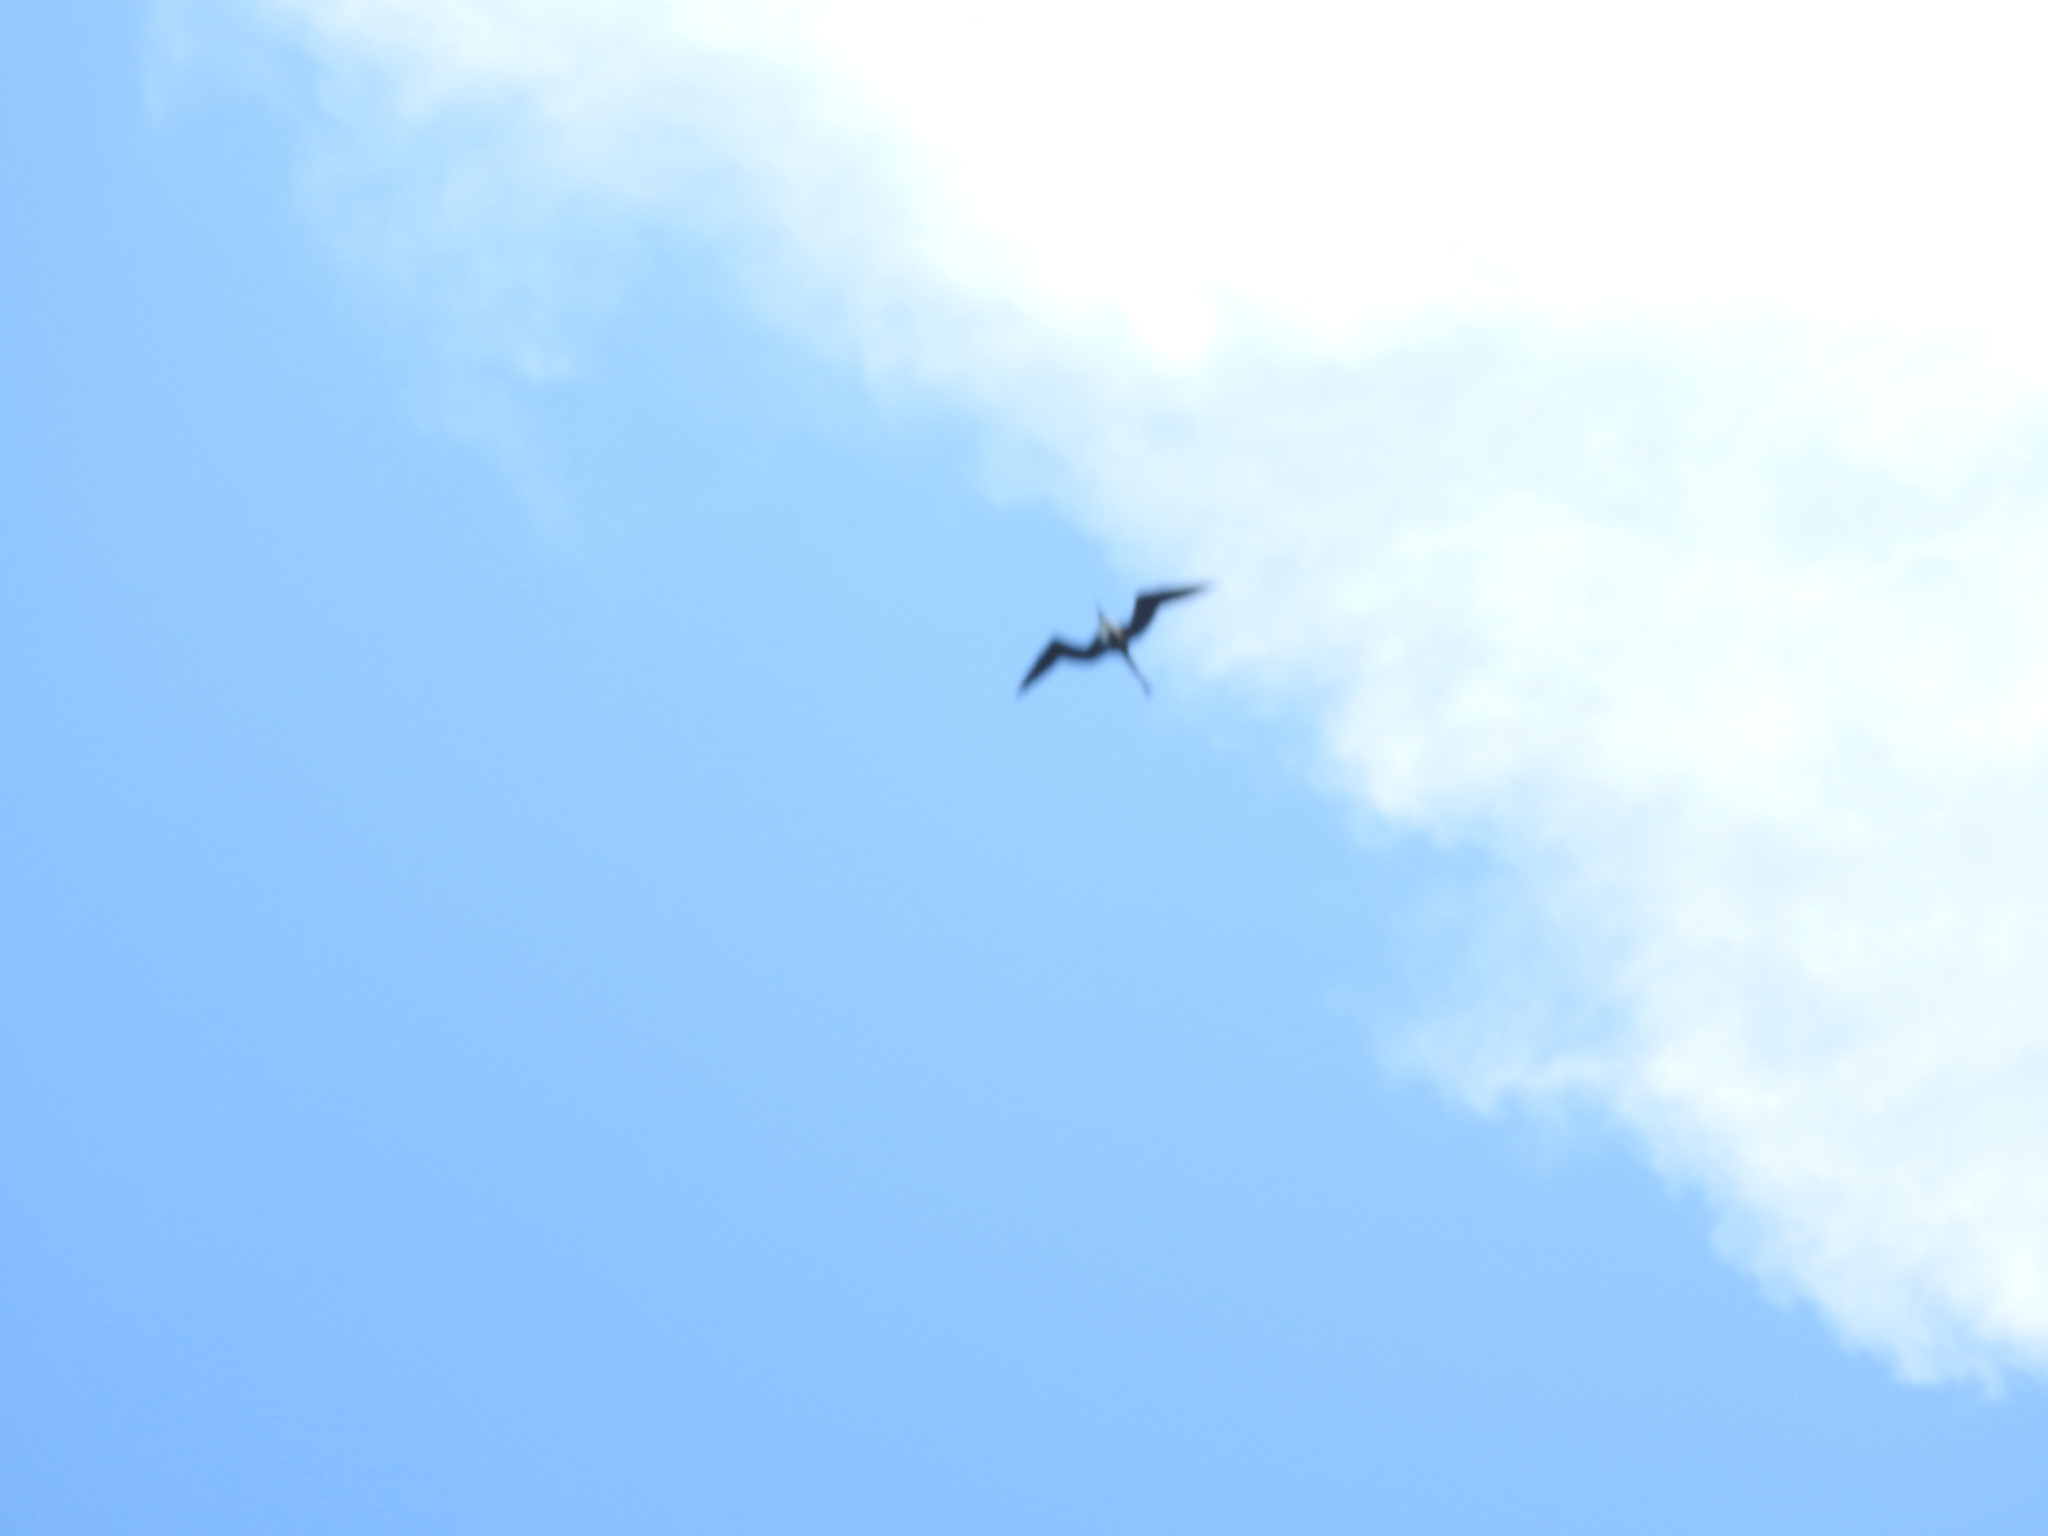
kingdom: Animalia
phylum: Chordata
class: Aves
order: Suliformes
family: Fregatidae
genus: Fregata
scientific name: Fregata magnificens
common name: Magnificent frigatebird
